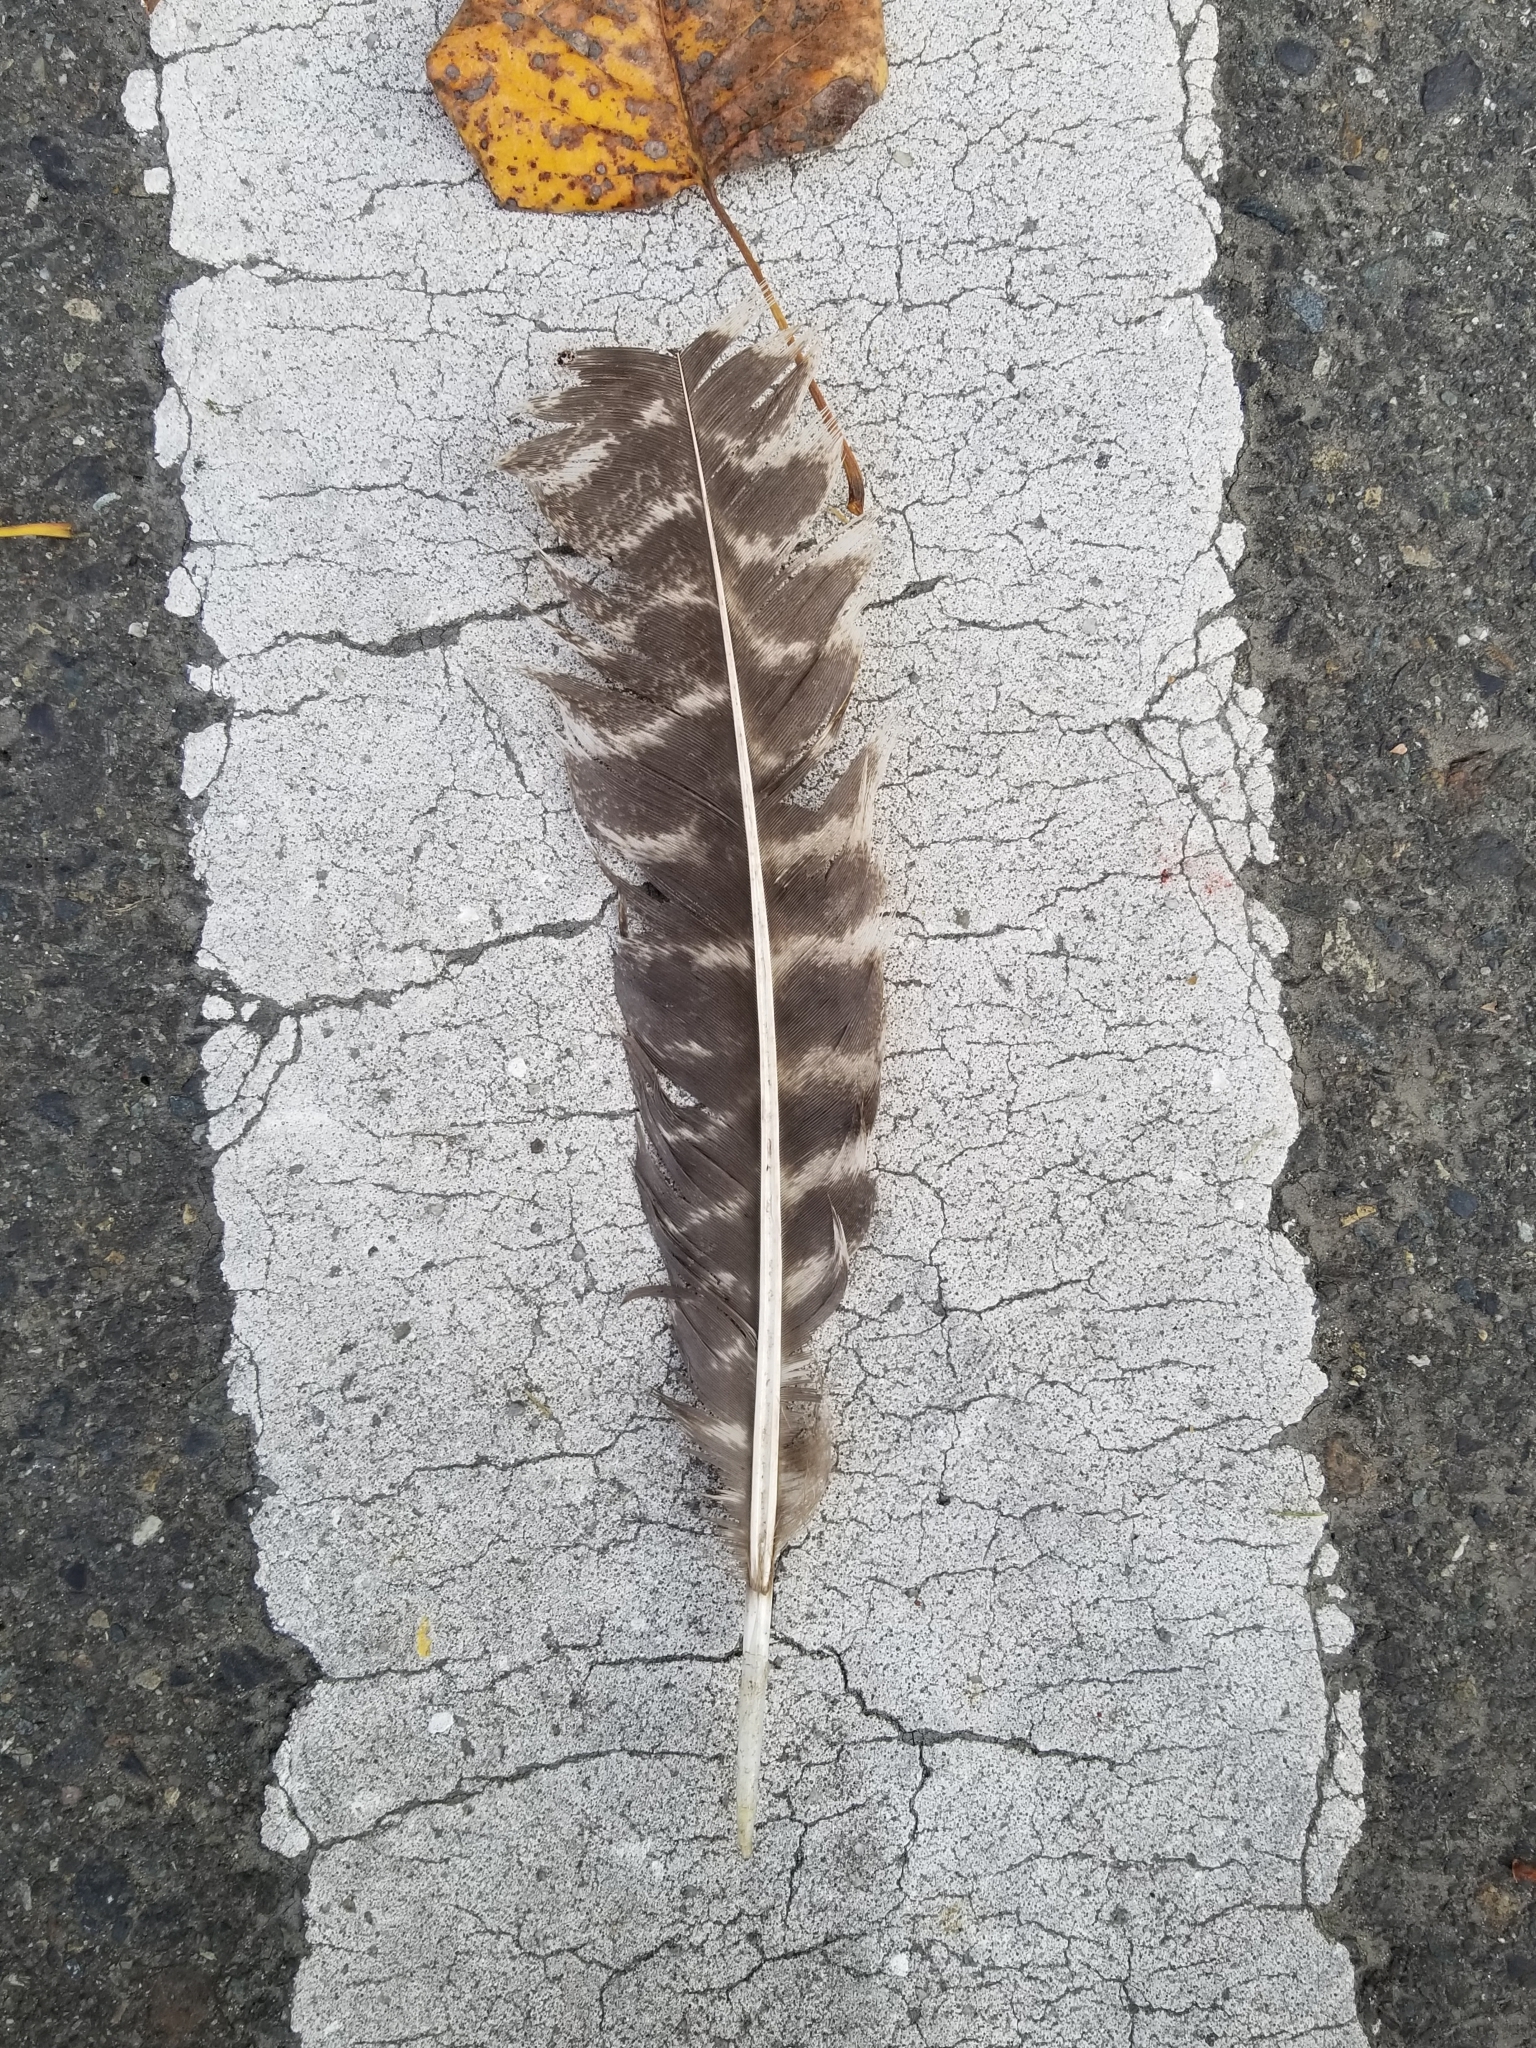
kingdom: Animalia
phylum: Chordata
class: Aves
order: Galliformes
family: Phasianidae
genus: Meleagris
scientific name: Meleagris gallopavo
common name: Wild turkey
